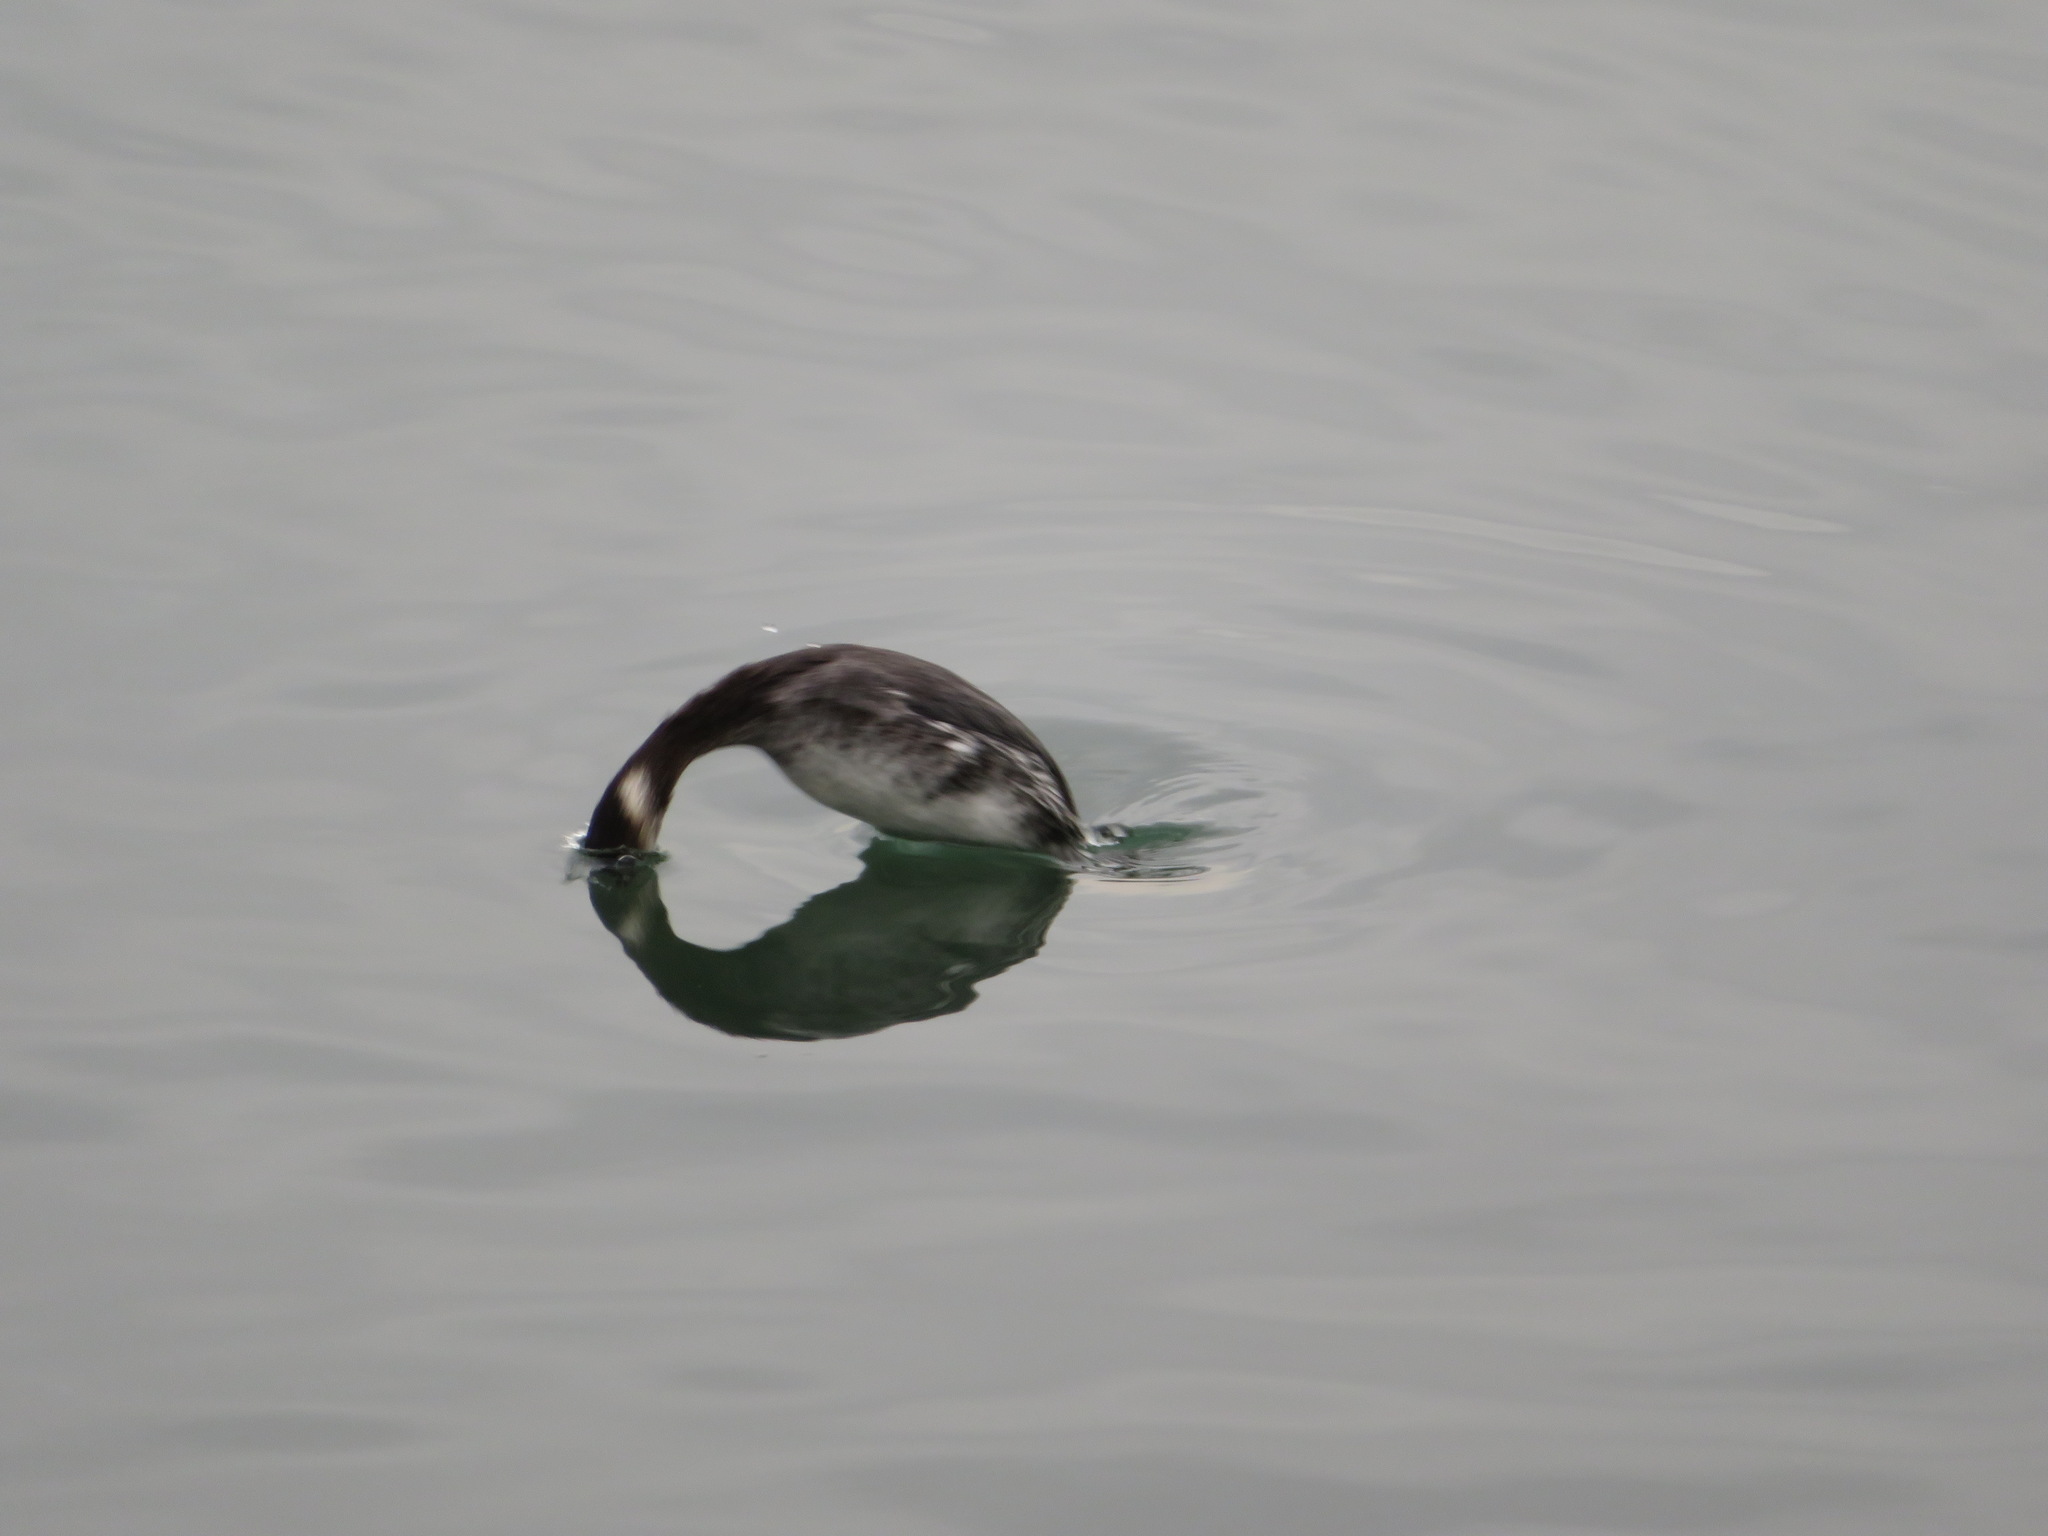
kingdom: Animalia
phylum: Chordata
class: Aves
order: Podicipediformes
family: Podicipedidae
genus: Podiceps
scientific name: Podiceps nigricollis
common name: Black-necked grebe
